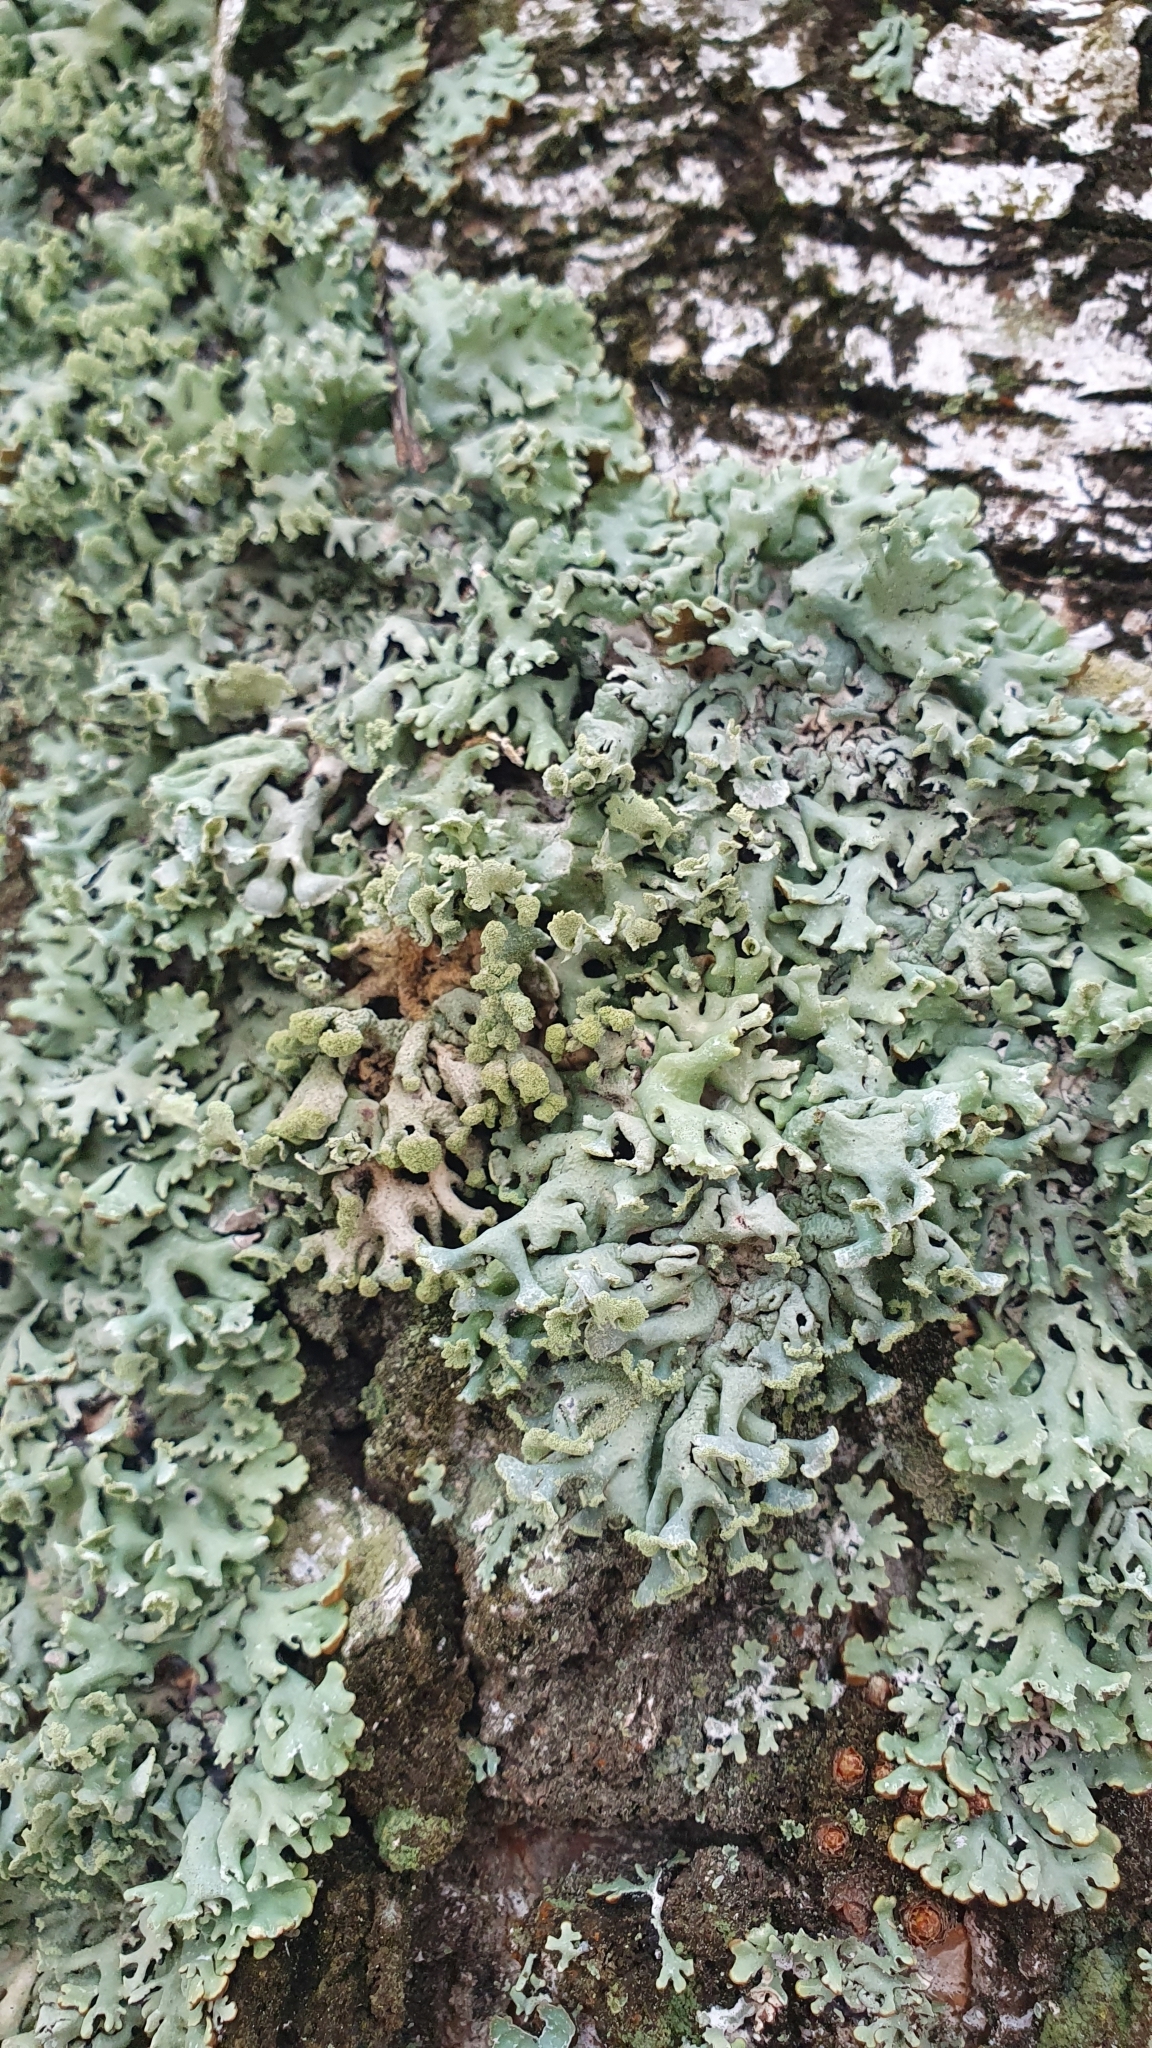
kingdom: Fungi
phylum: Ascomycota
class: Lecanoromycetes
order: Lecanorales
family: Parmeliaceae
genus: Hypogymnia
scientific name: Hypogymnia tubulosa
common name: Powder-headed tube lichen
